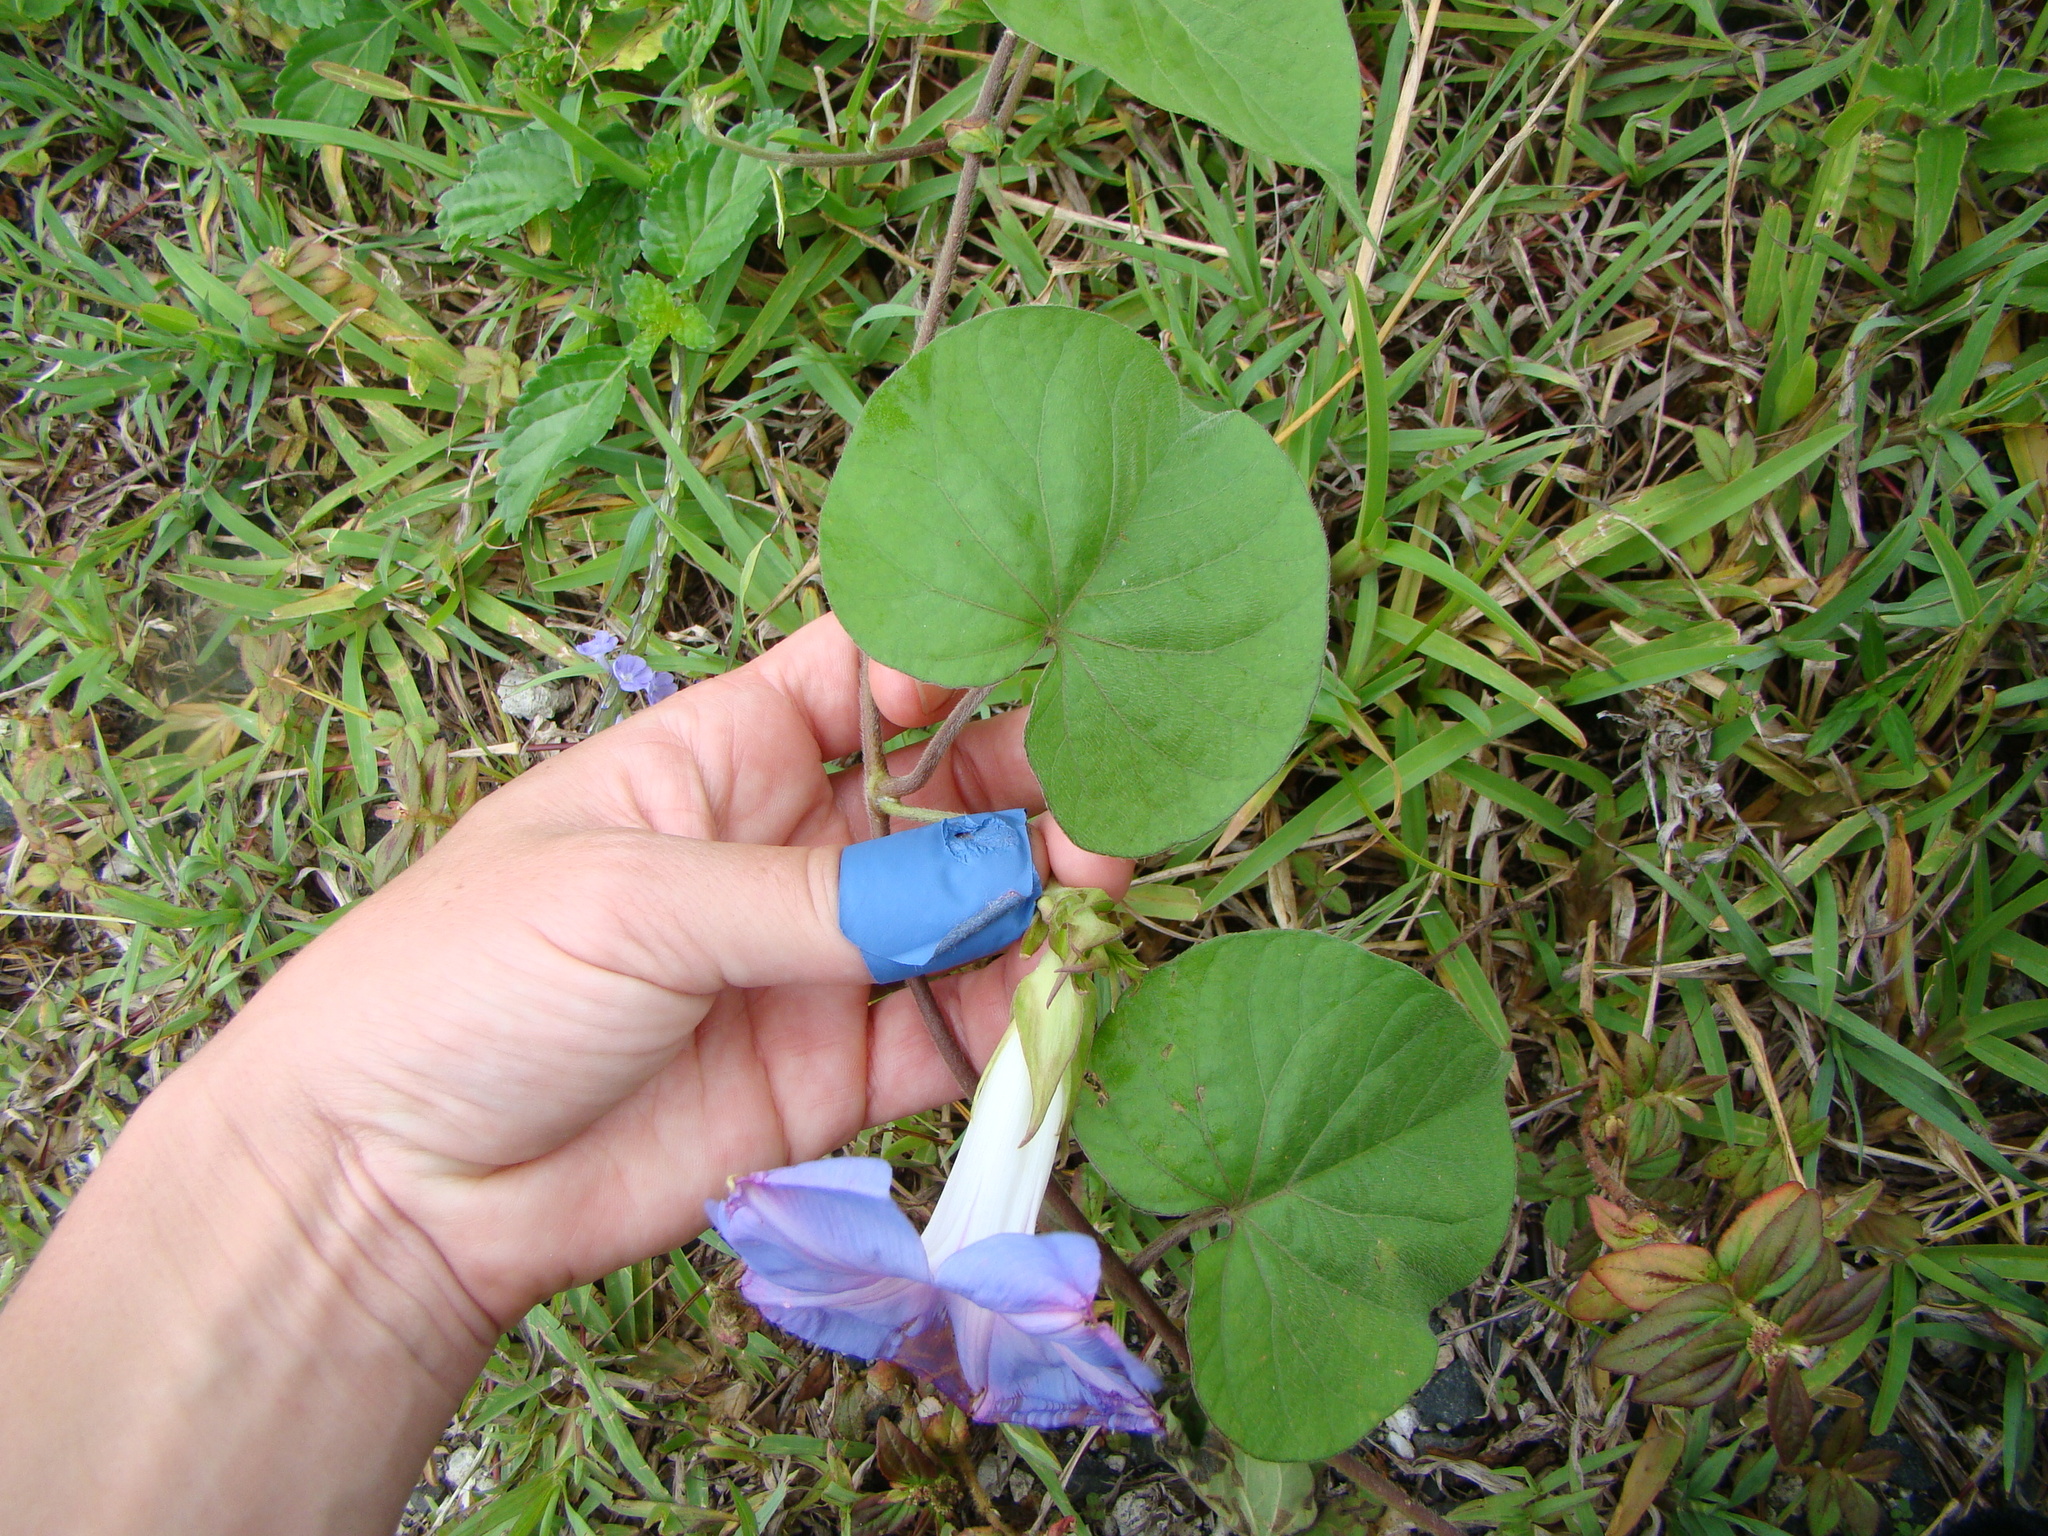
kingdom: Plantae
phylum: Tracheophyta
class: Magnoliopsida
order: Solanales
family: Convolvulaceae
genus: Ipomoea
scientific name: Ipomoea indica
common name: Blue dawnflower
